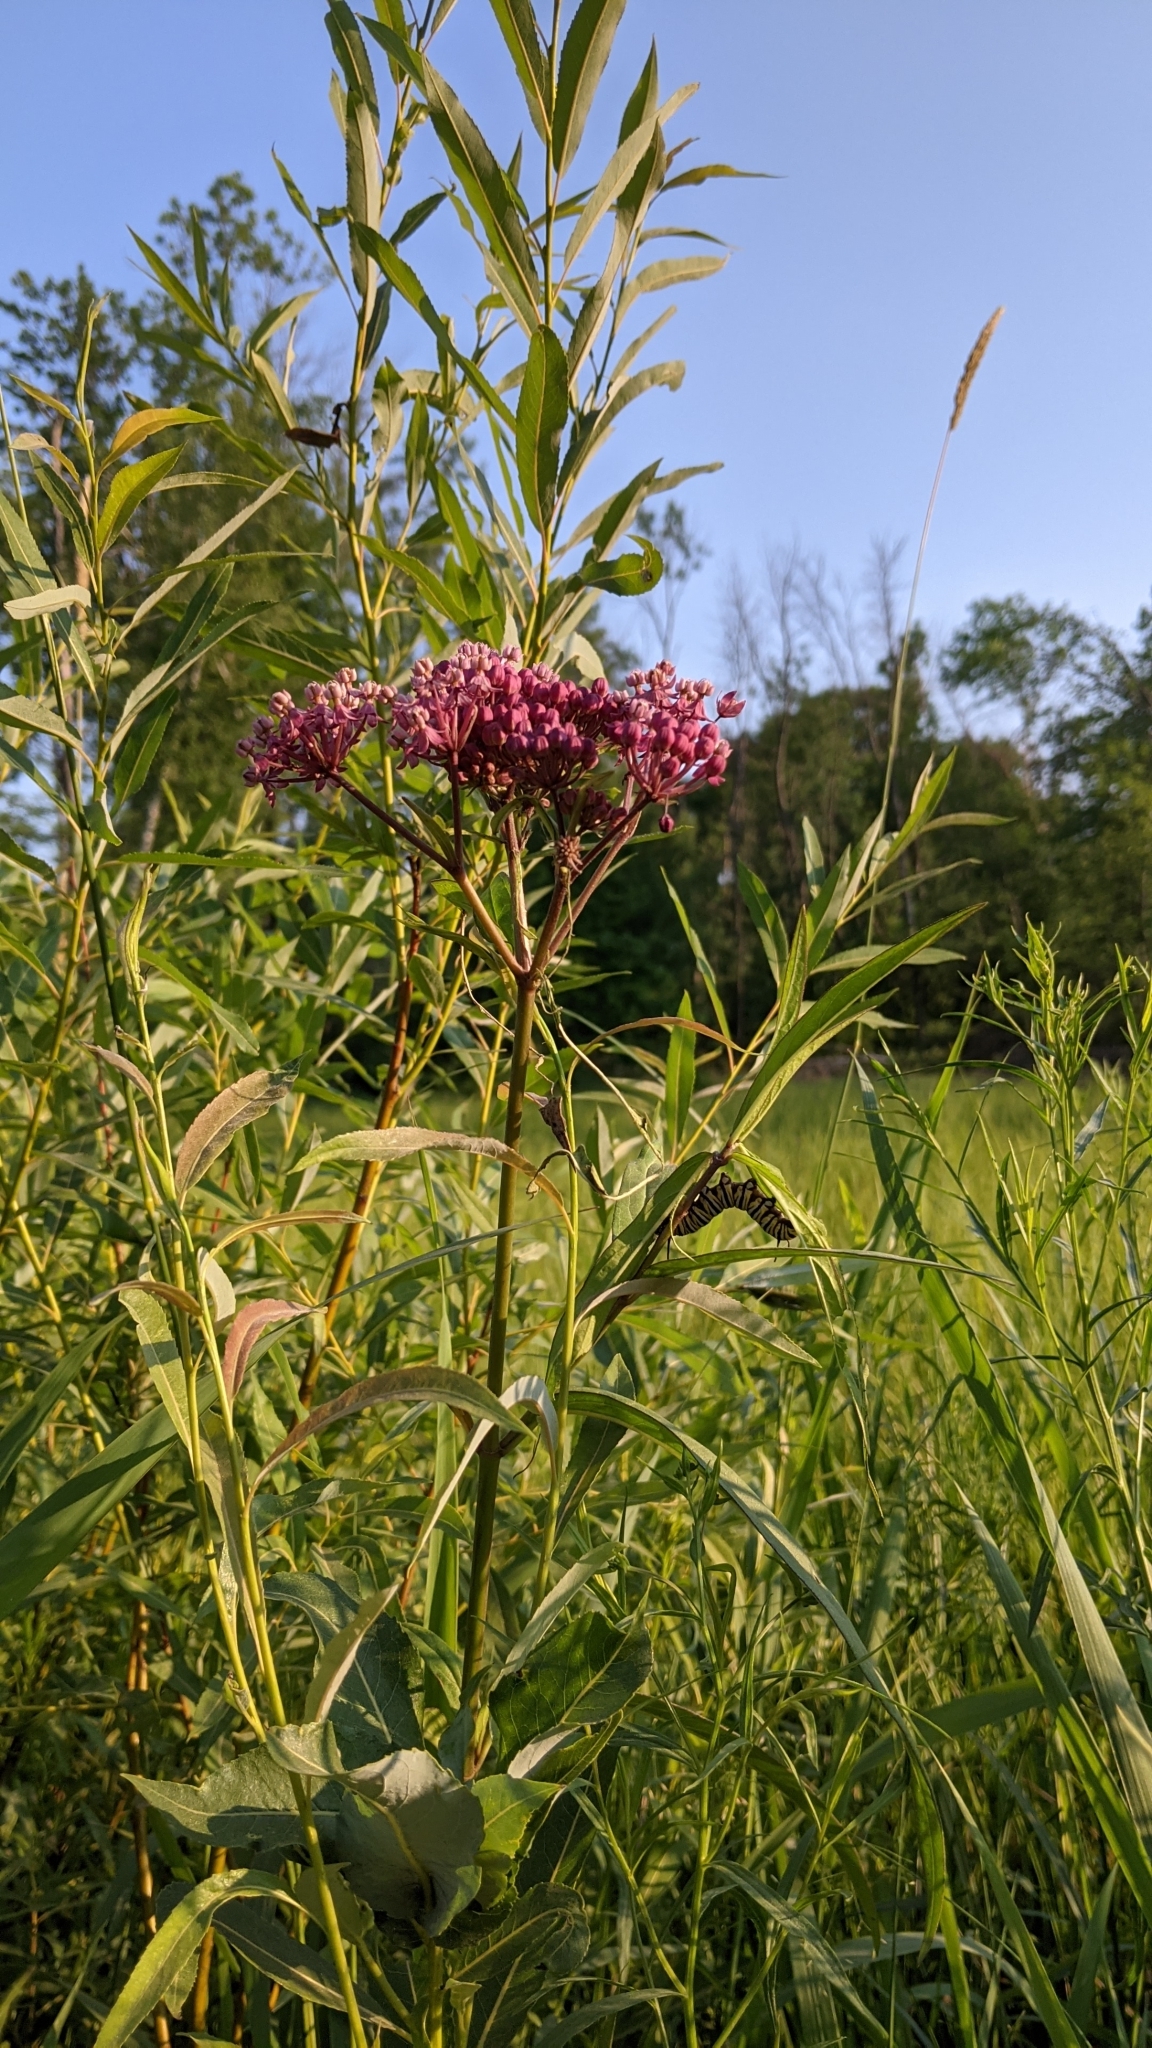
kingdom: Plantae
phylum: Tracheophyta
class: Magnoliopsida
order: Gentianales
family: Apocynaceae
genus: Asclepias
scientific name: Asclepias incarnata
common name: Swamp milkweed
